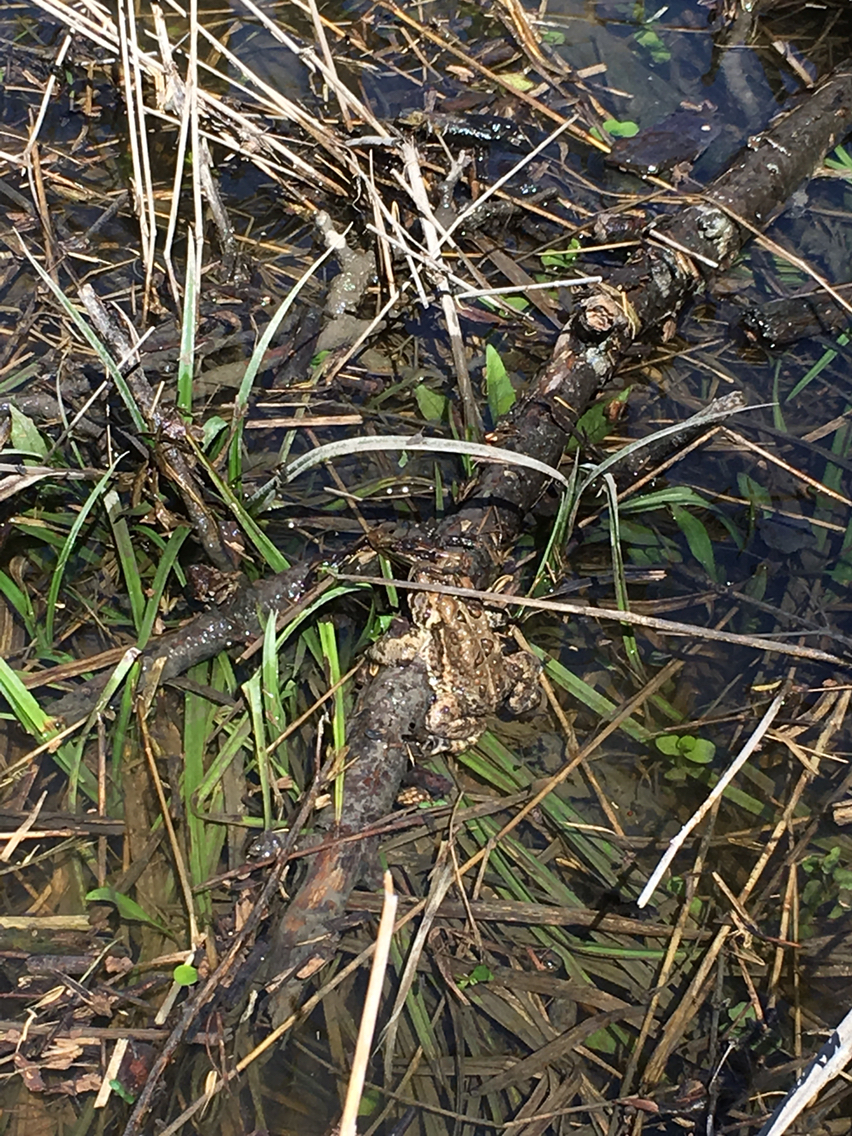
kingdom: Animalia
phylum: Chordata
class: Amphibia
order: Anura
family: Bufonidae
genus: Anaxyrus
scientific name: Anaxyrus americanus
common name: American toad
